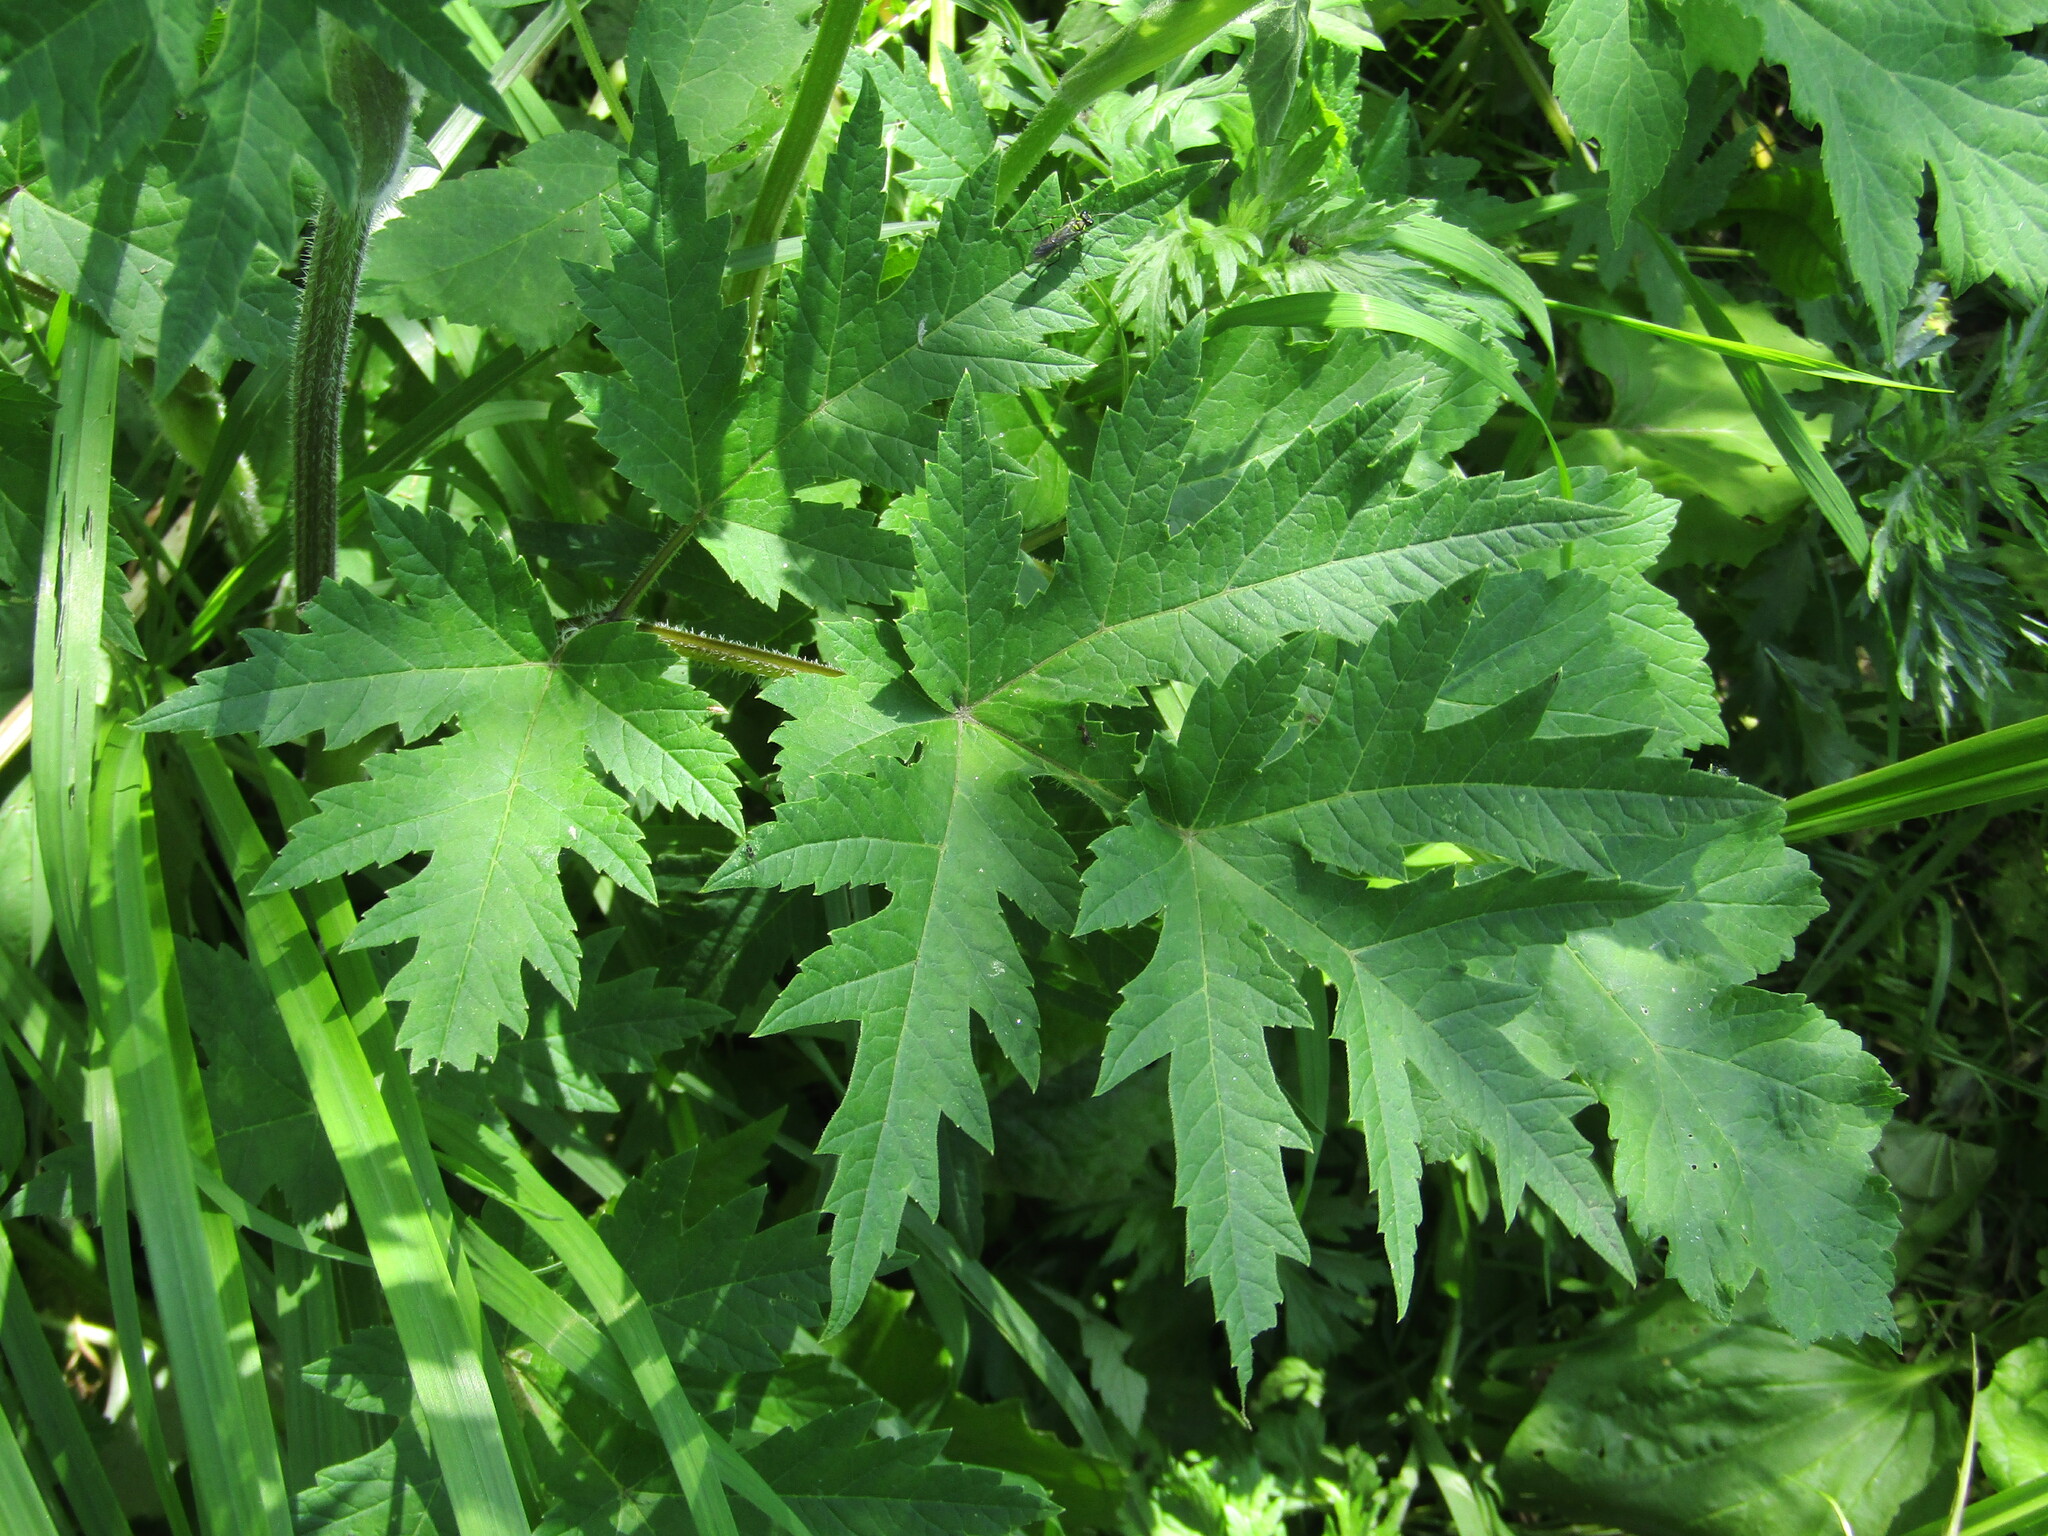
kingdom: Plantae
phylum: Tracheophyta
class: Magnoliopsida
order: Apiales
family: Apiaceae
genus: Heracleum
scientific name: Heracleum sphondylium
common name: Hogweed
